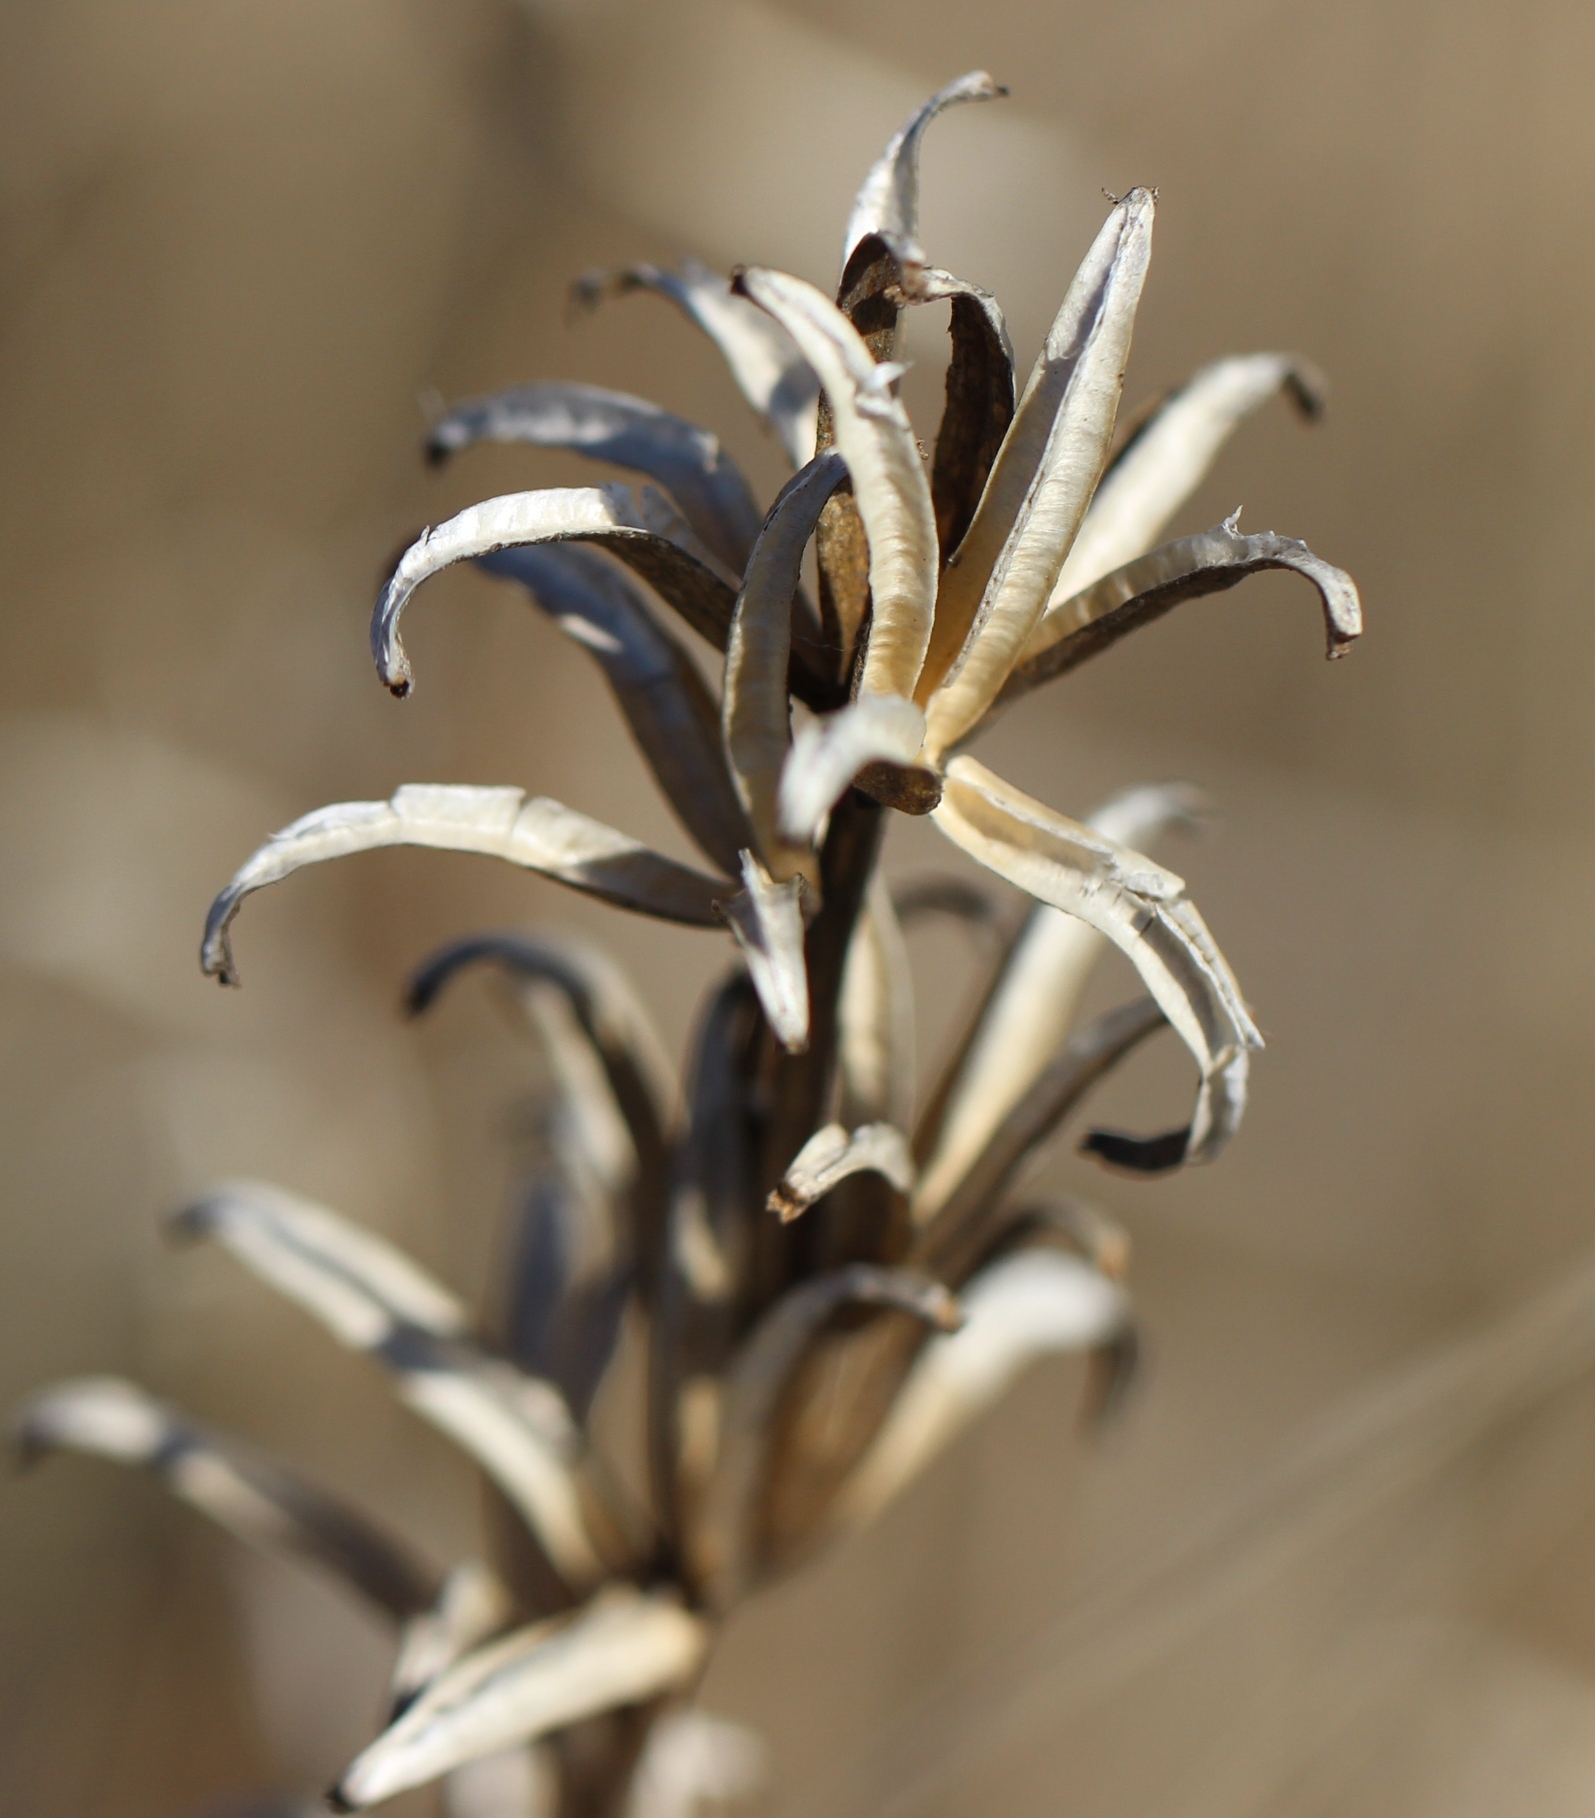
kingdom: Plantae
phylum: Tracheophyta
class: Magnoliopsida
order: Myrtales
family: Onagraceae
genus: Oenothera
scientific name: Oenothera
